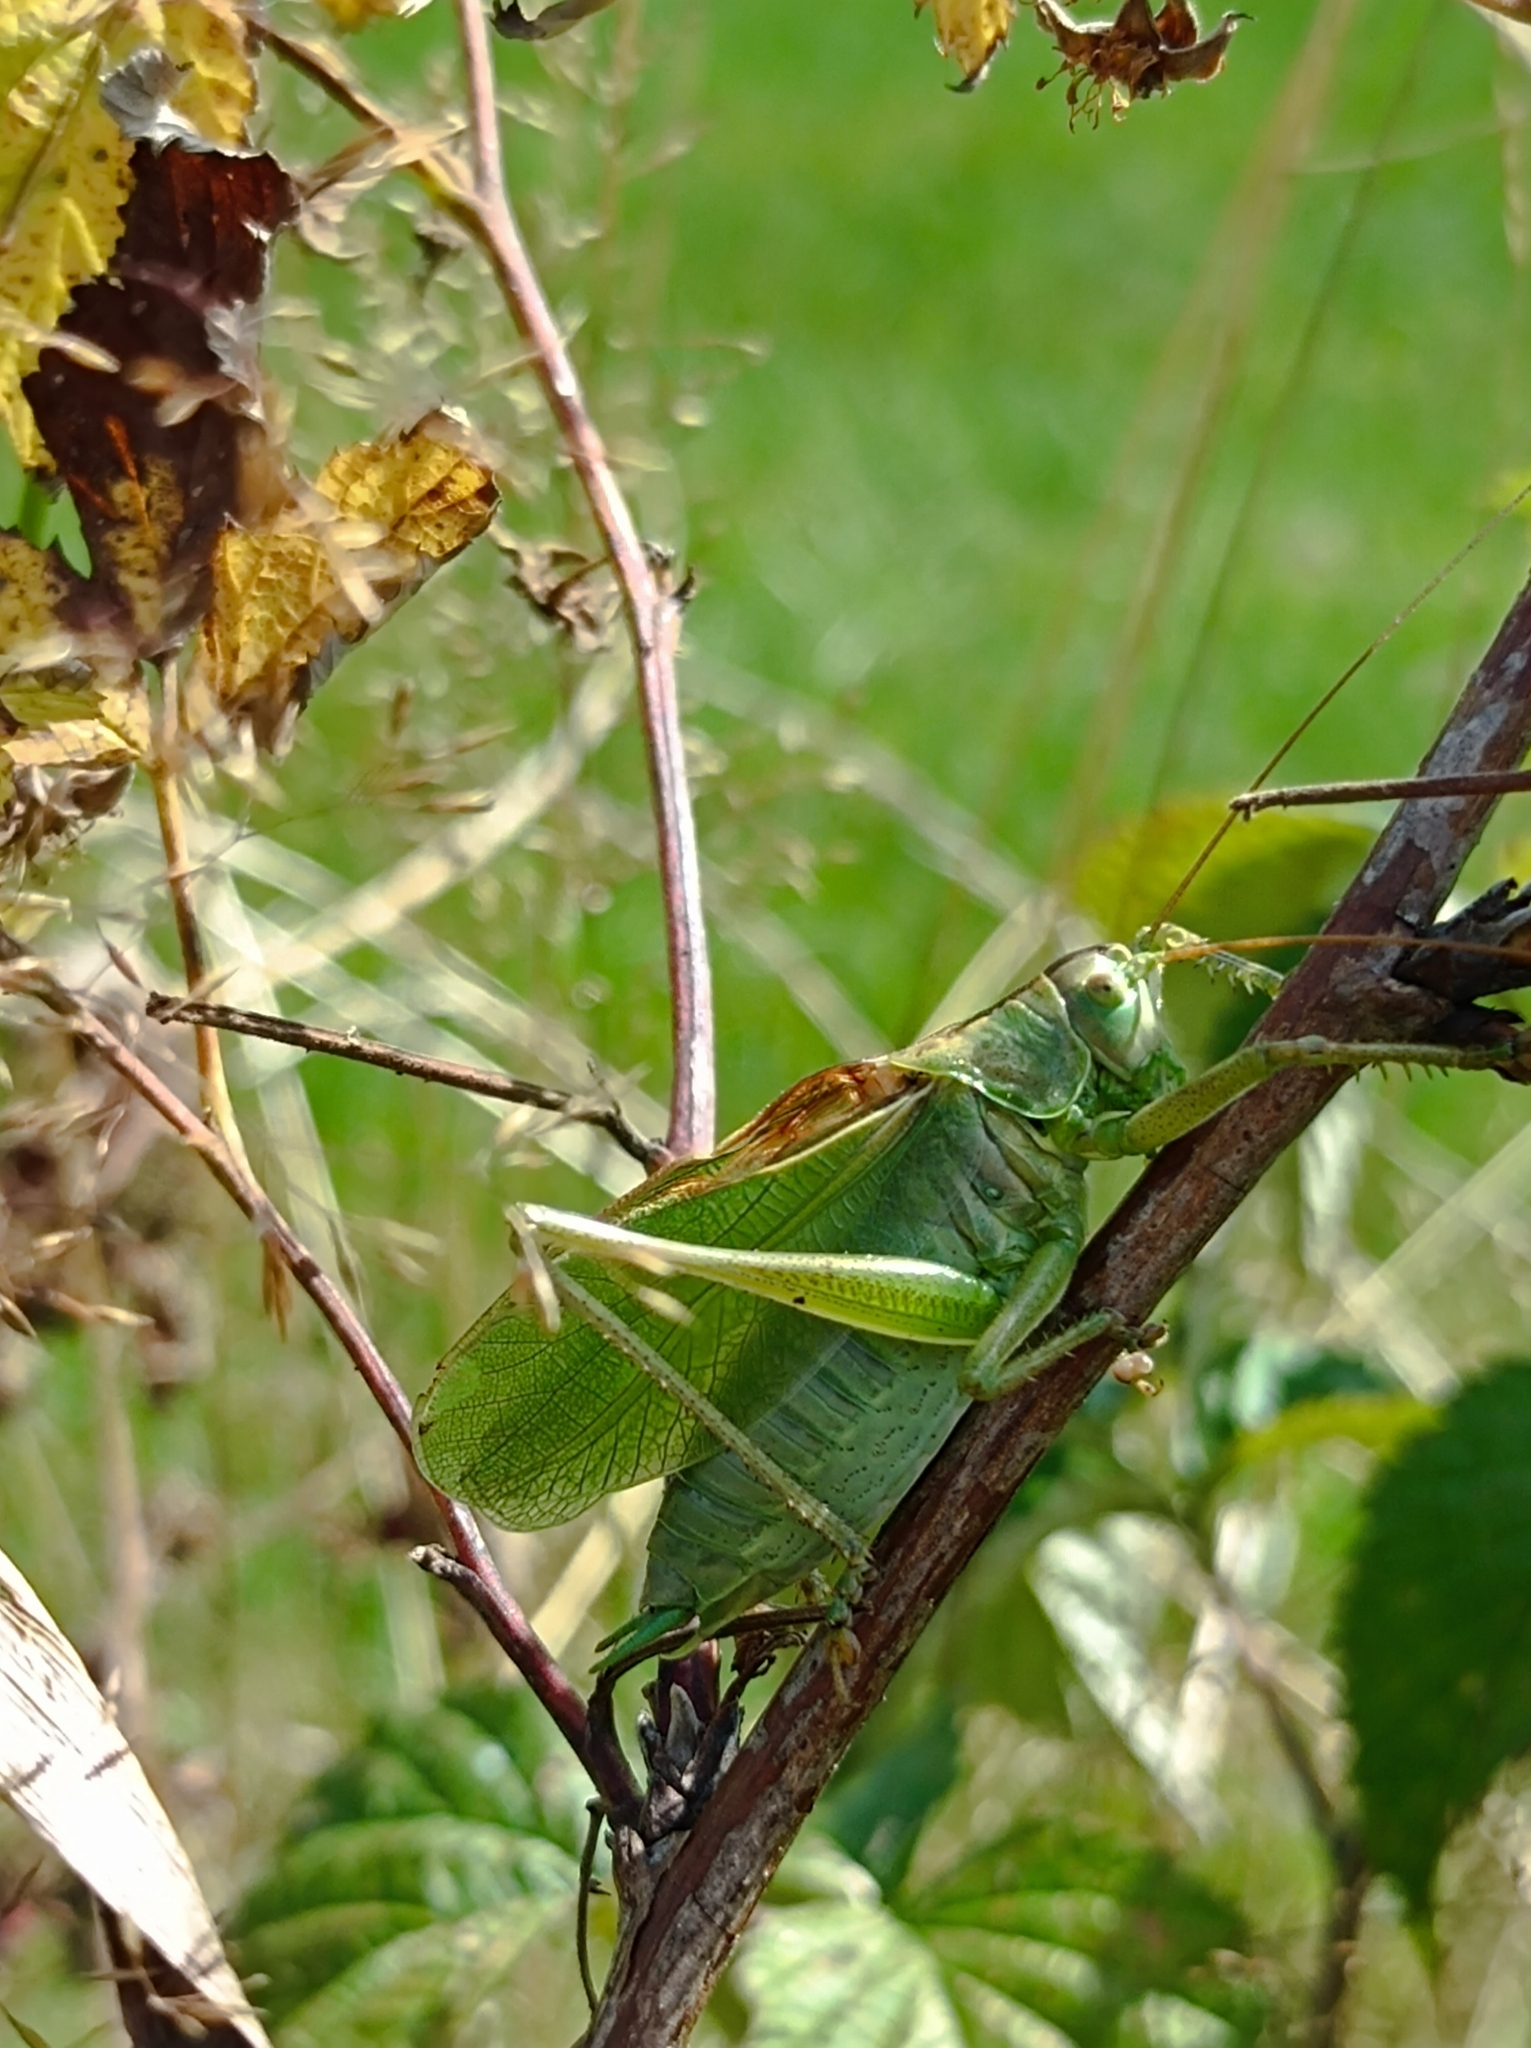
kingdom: Animalia
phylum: Arthropoda
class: Insecta
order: Orthoptera
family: Tettigoniidae
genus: Tettigonia
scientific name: Tettigonia cantans
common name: Upland green bush-cricket
